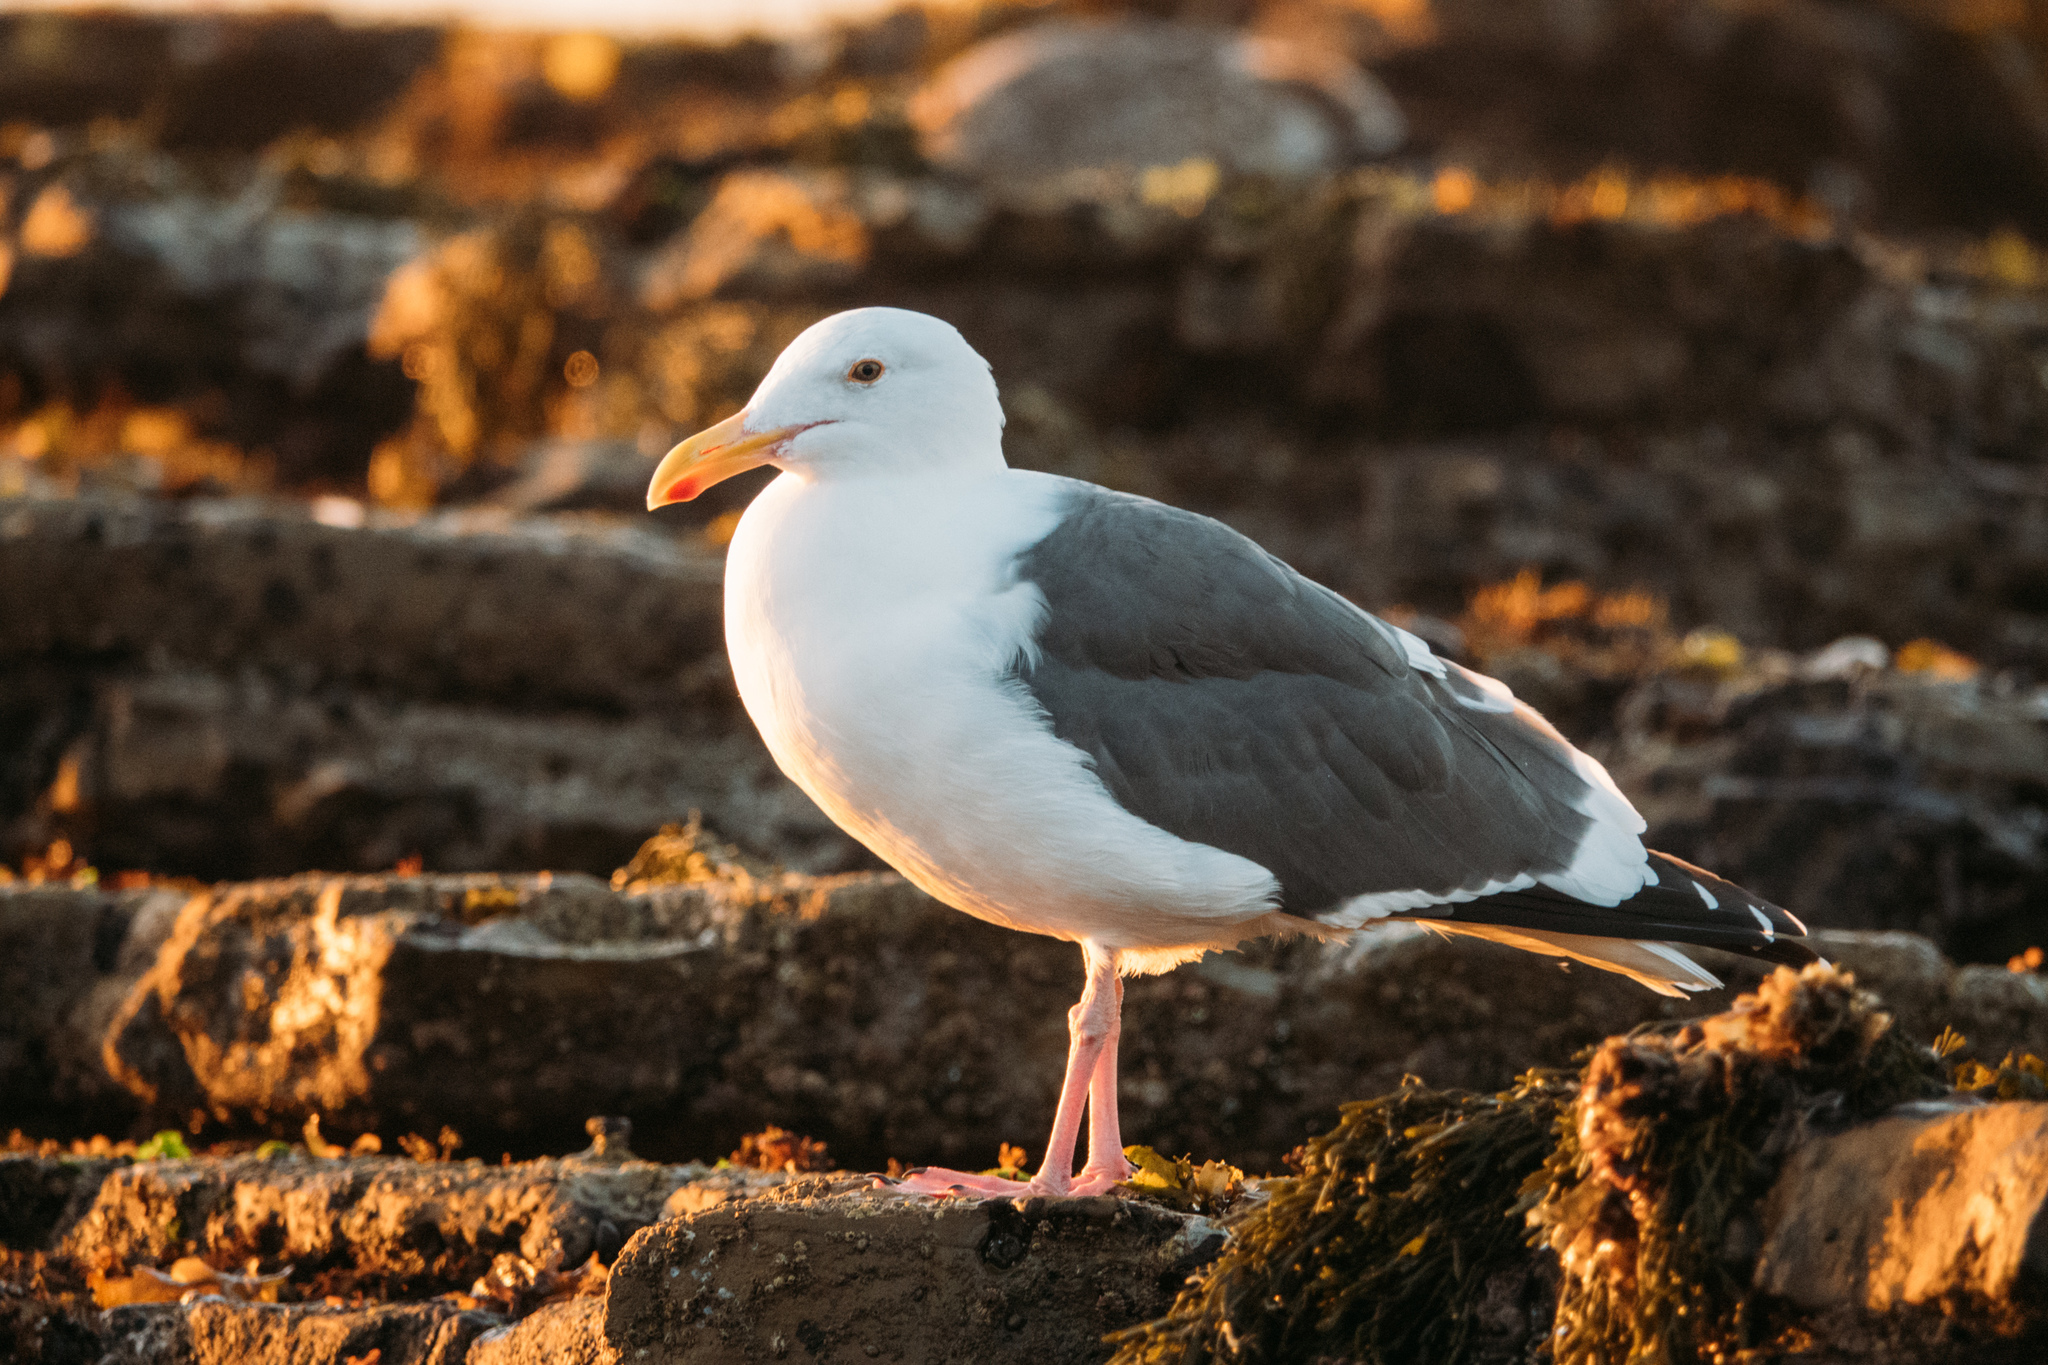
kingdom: Animalia
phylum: Chordata
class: Aves
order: Charadriiformes
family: Laridae
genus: Larus
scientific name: Larus occidentalis
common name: Western gull
